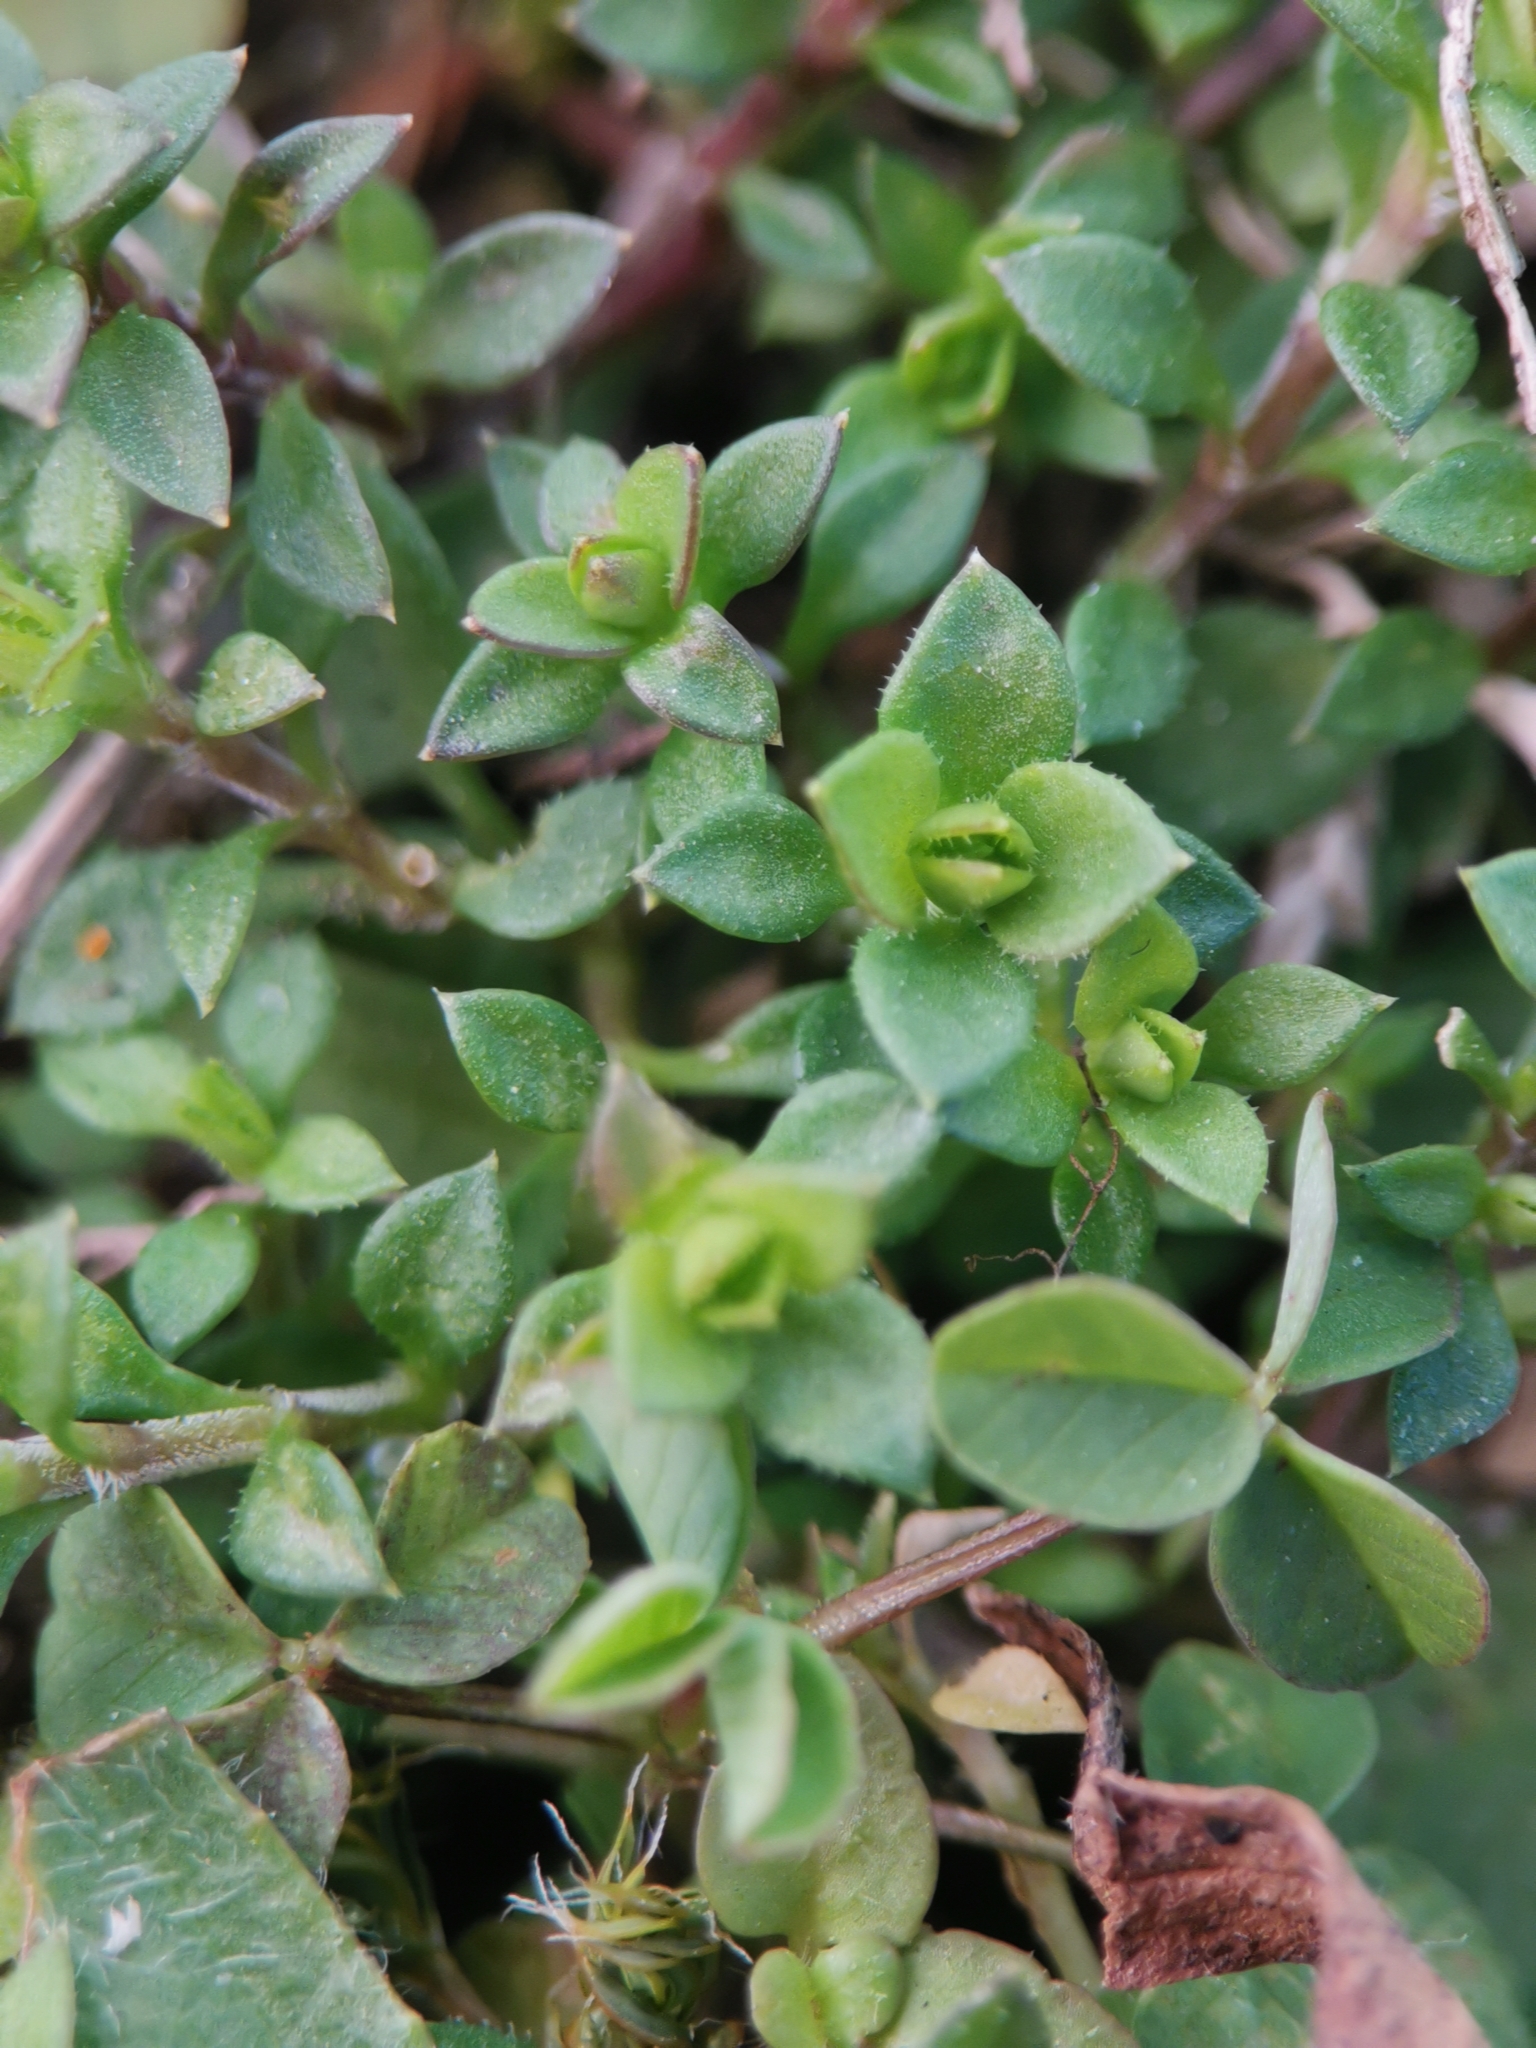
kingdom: Plantae
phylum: Tracheophyta
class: Magnoliopsida
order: Caryophyllales
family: Caryophyllaceae
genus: Arenaria
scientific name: Arenaria serpyllifolia
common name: Thyme-leaved sandwort
